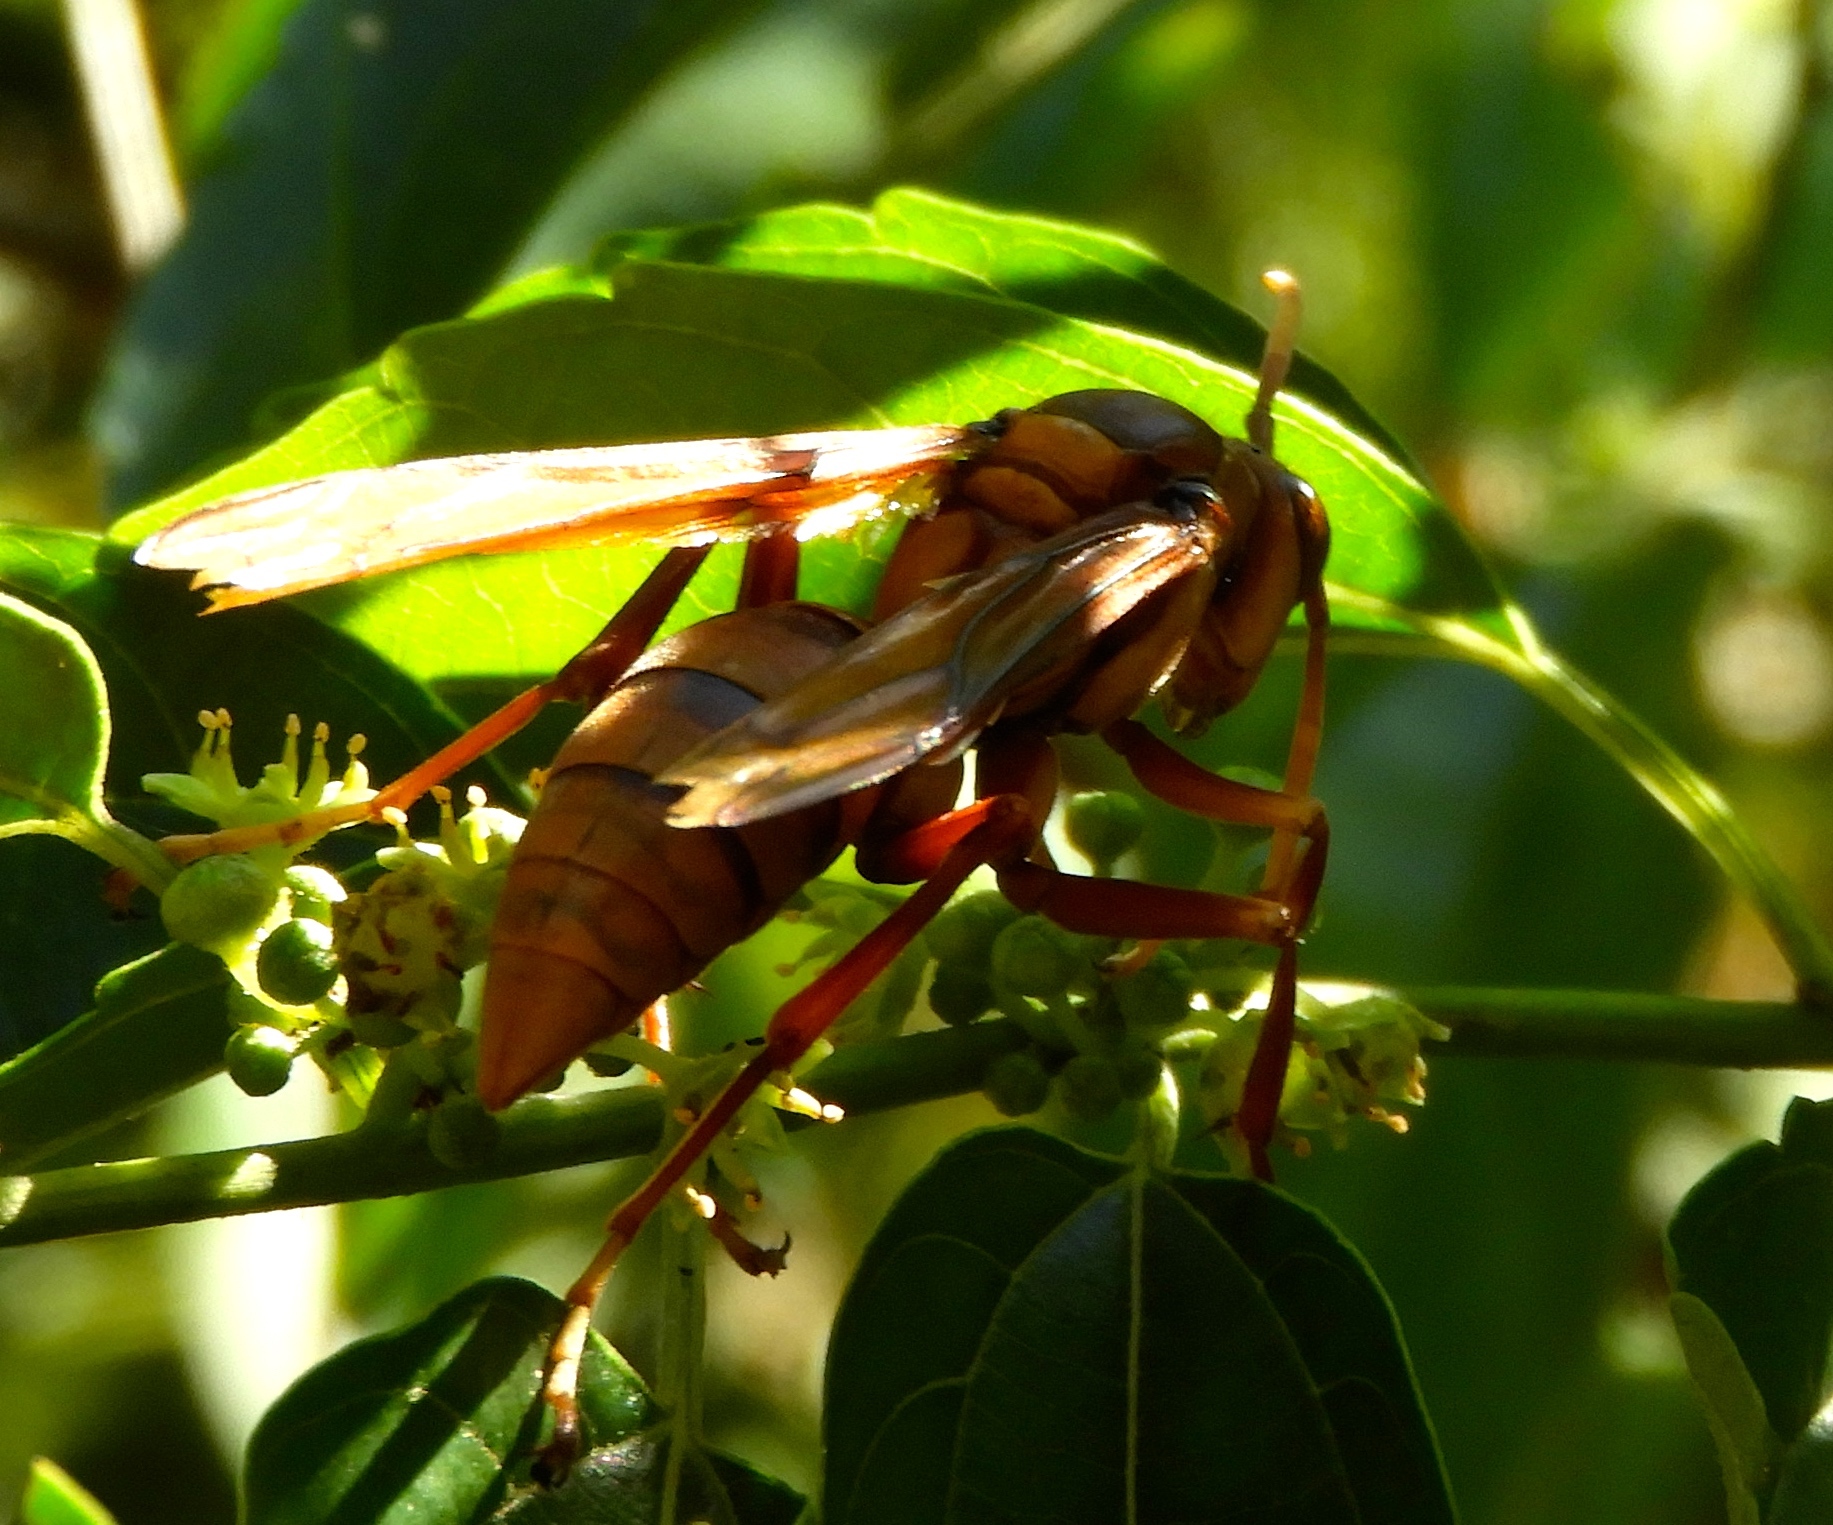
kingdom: Animalia
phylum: Arthropoda
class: Insecta
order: Hymenoptera
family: Eumenidae
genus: Polistes
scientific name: Polistes carnifex
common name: Paper wasp
